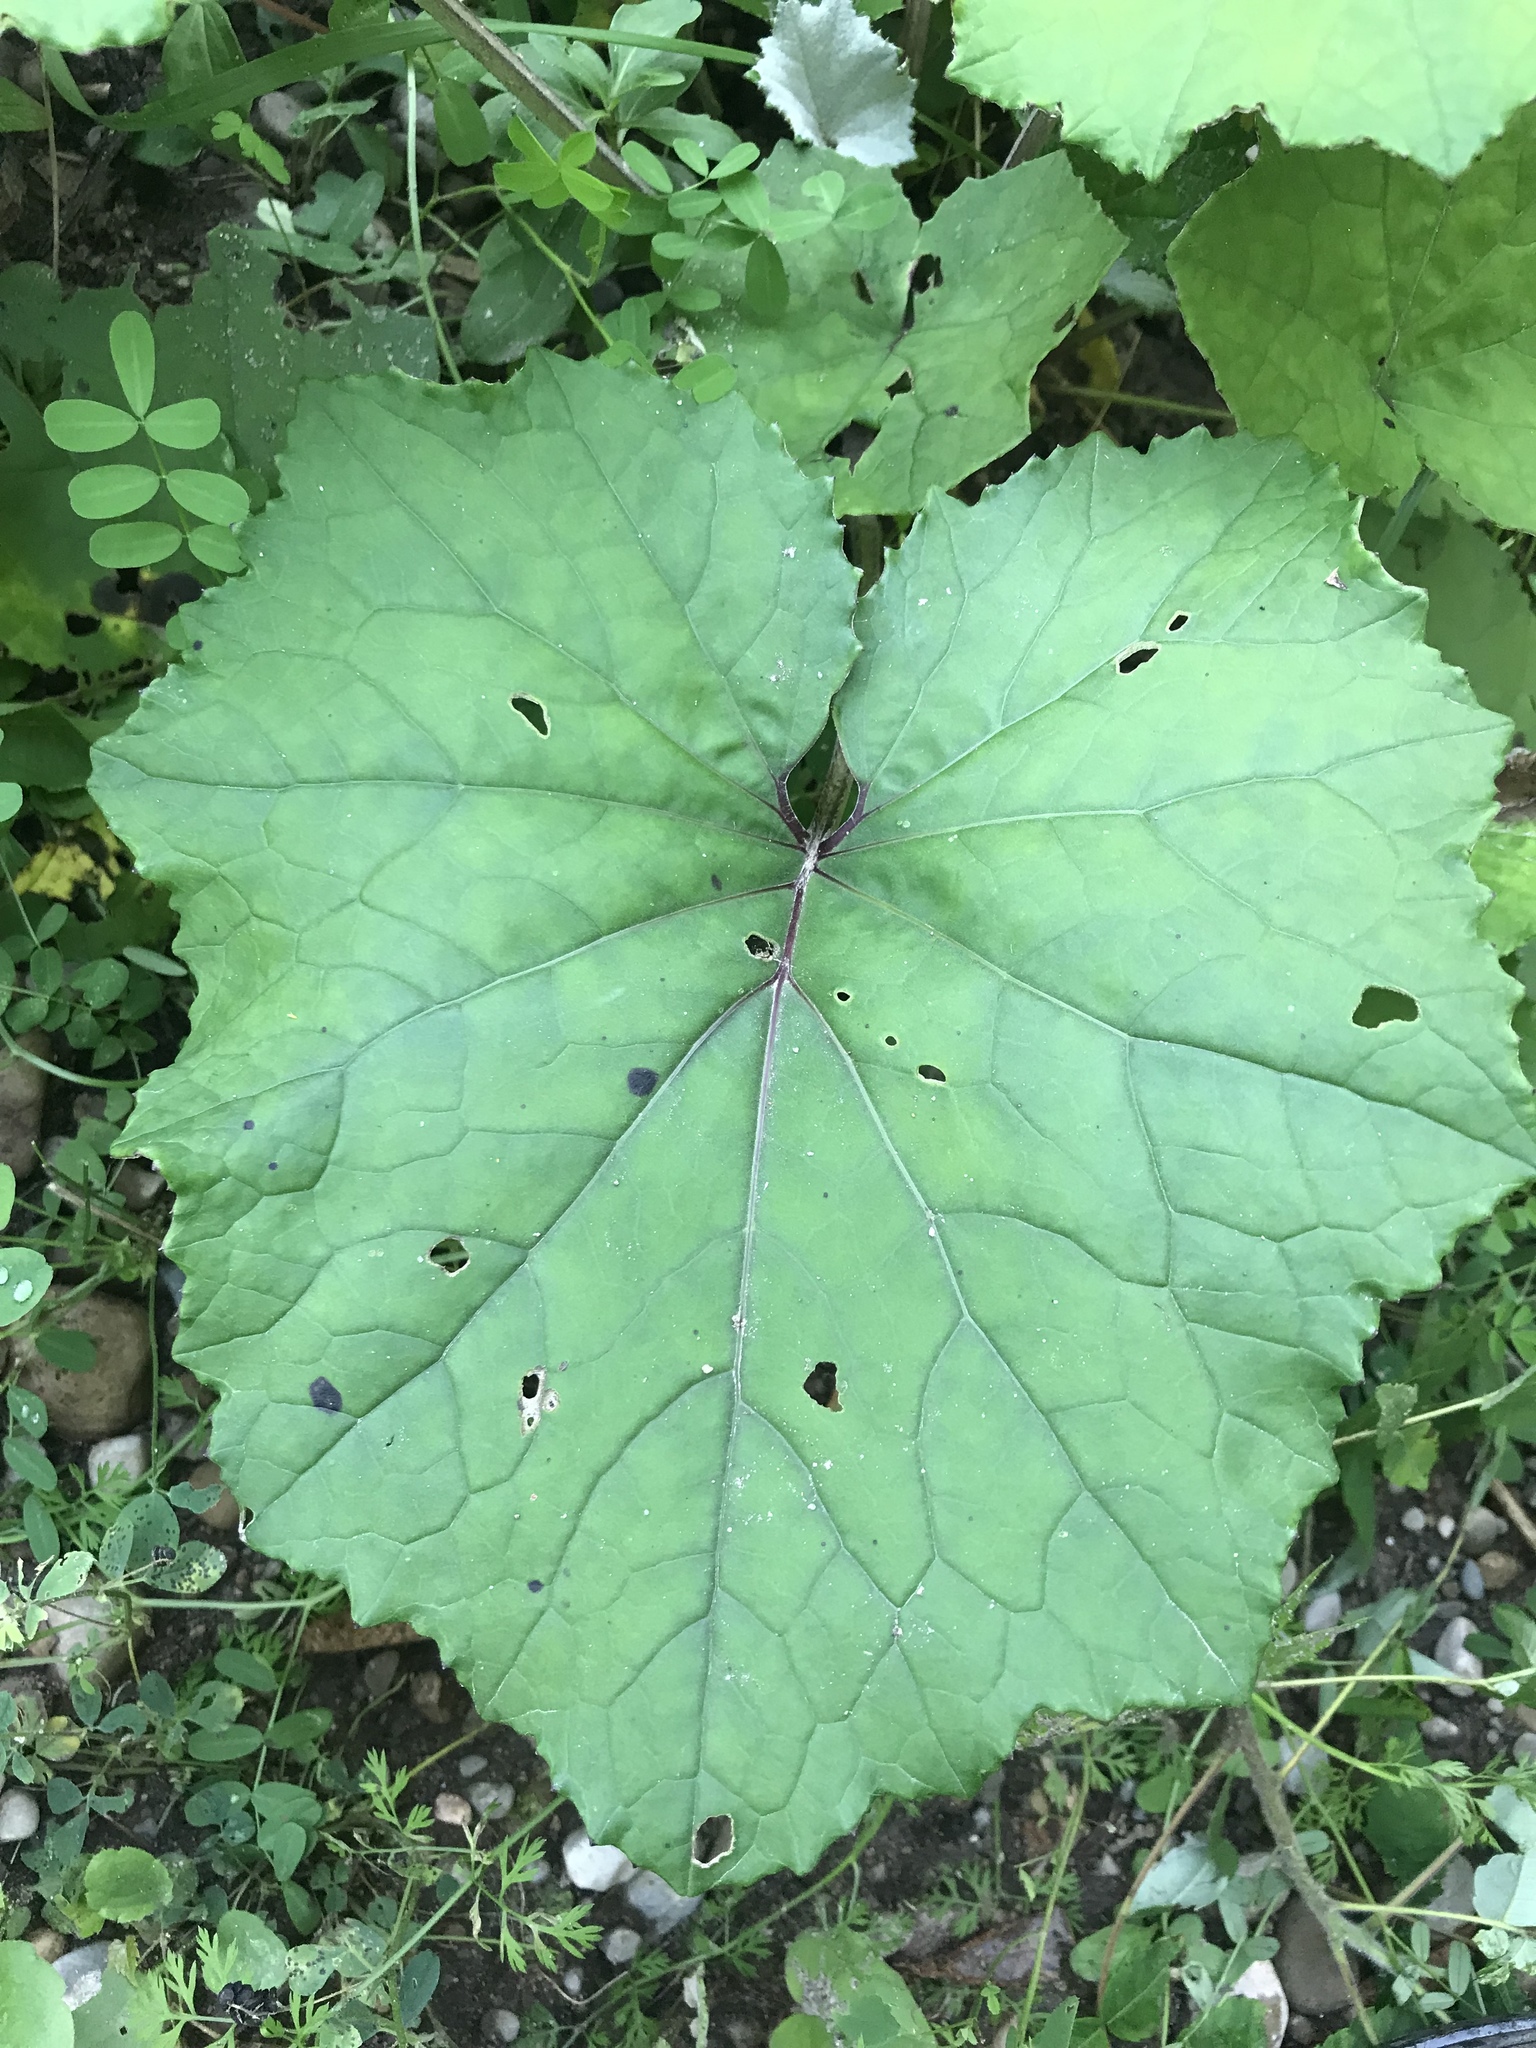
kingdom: Plantae
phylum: Tracheophyta
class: Magnoliopsida
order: Asterales
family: Asteraceae
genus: Tussilago
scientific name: Tussilago farfara
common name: Coltsfoot
